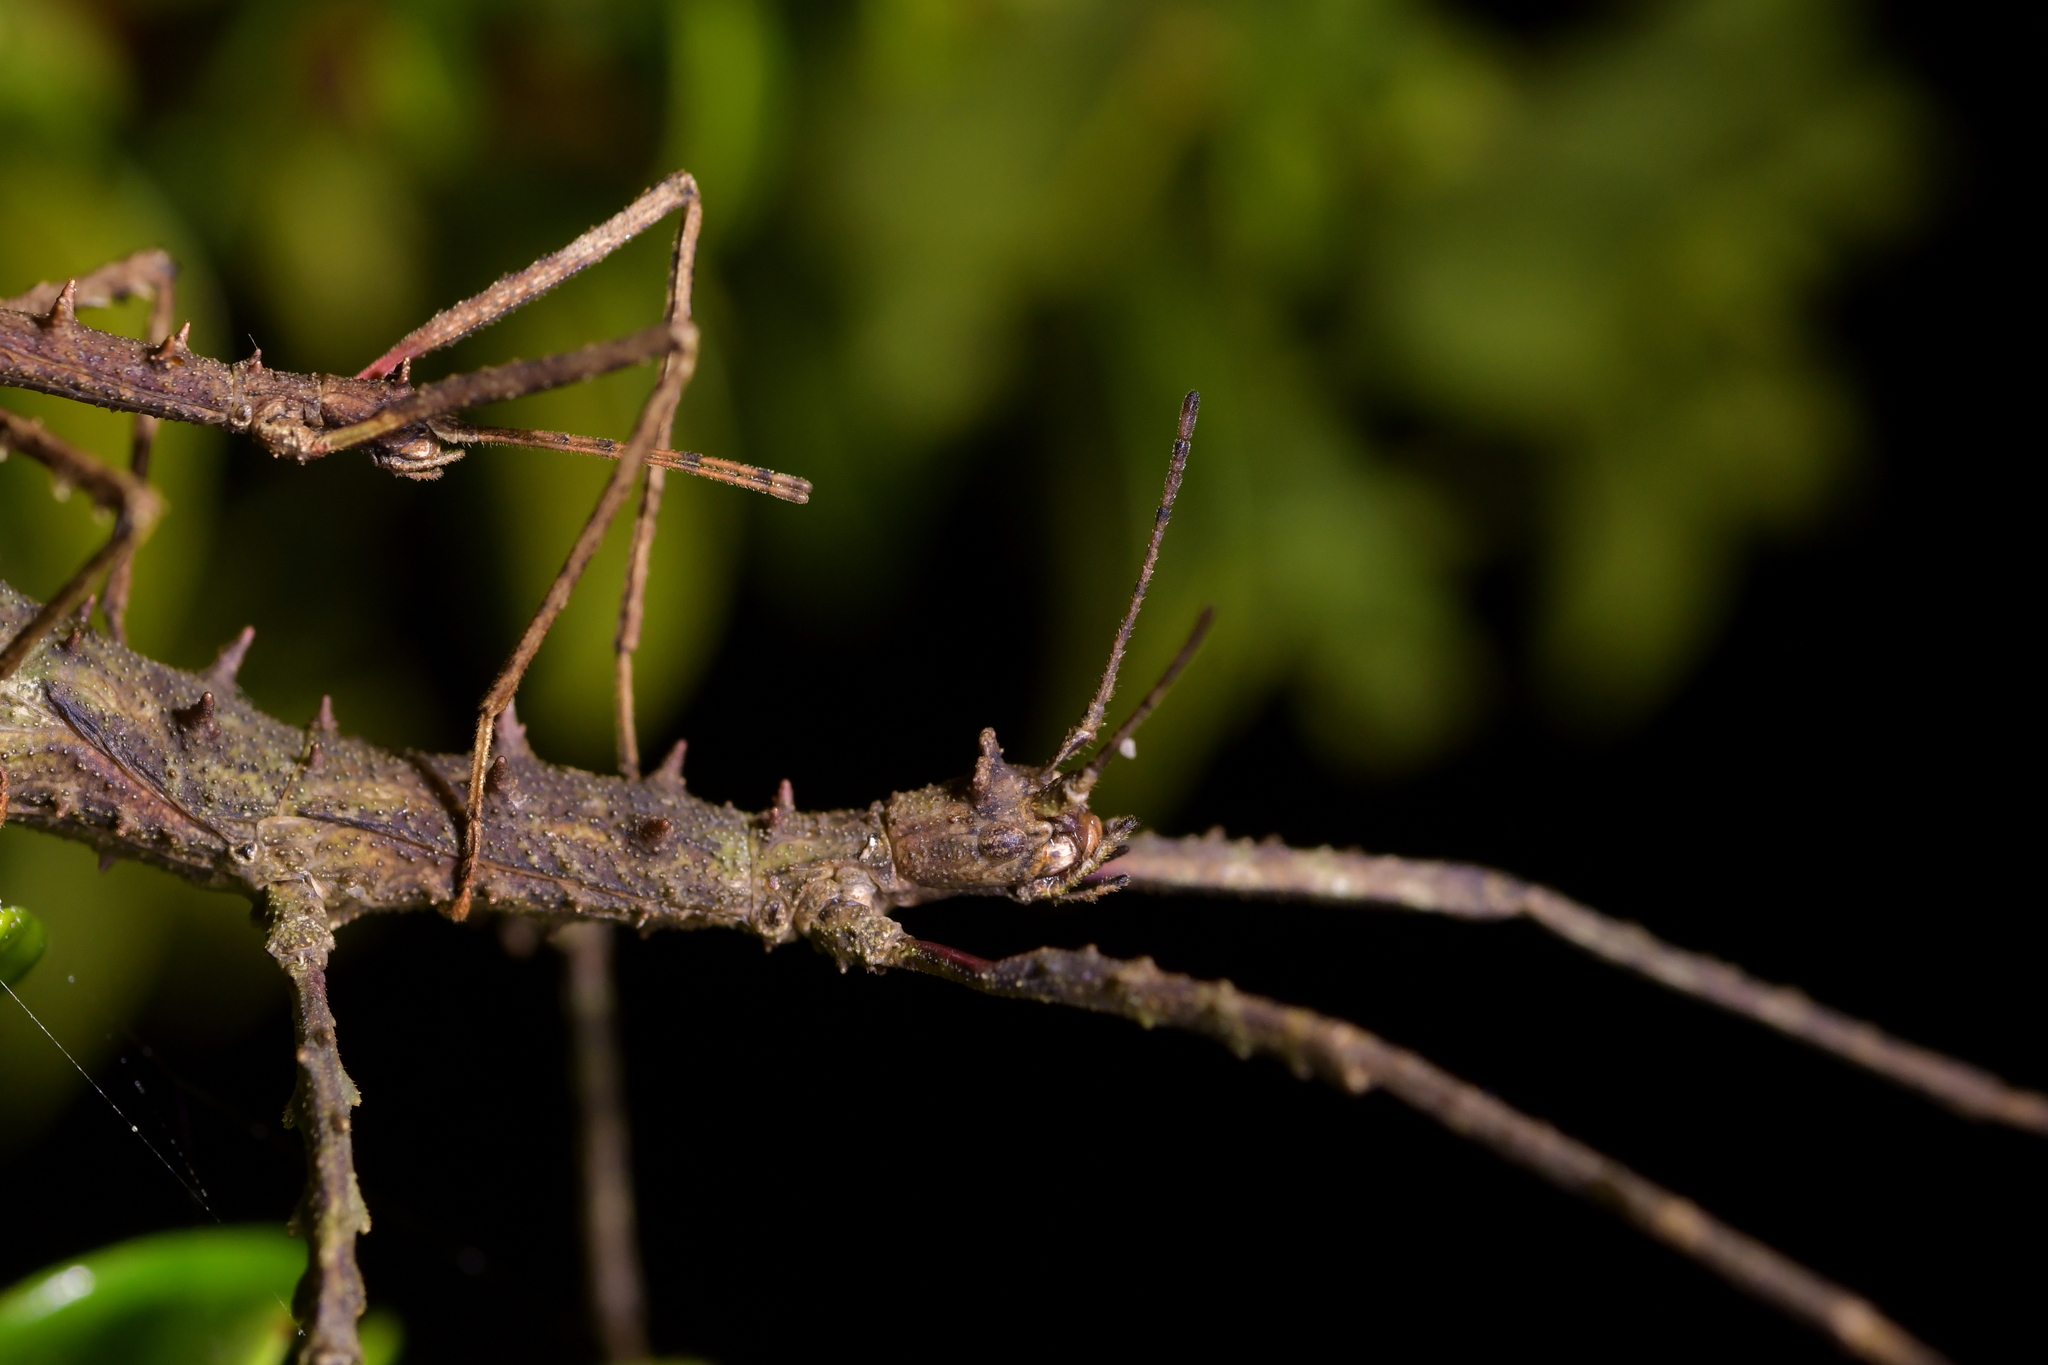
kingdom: Animalia
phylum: Arthropoda
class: Insecta
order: Phasmida
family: Phasmatidae
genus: Micrarchus
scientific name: Micrarchus hystriculeus
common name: The lesser spiny stick insect
